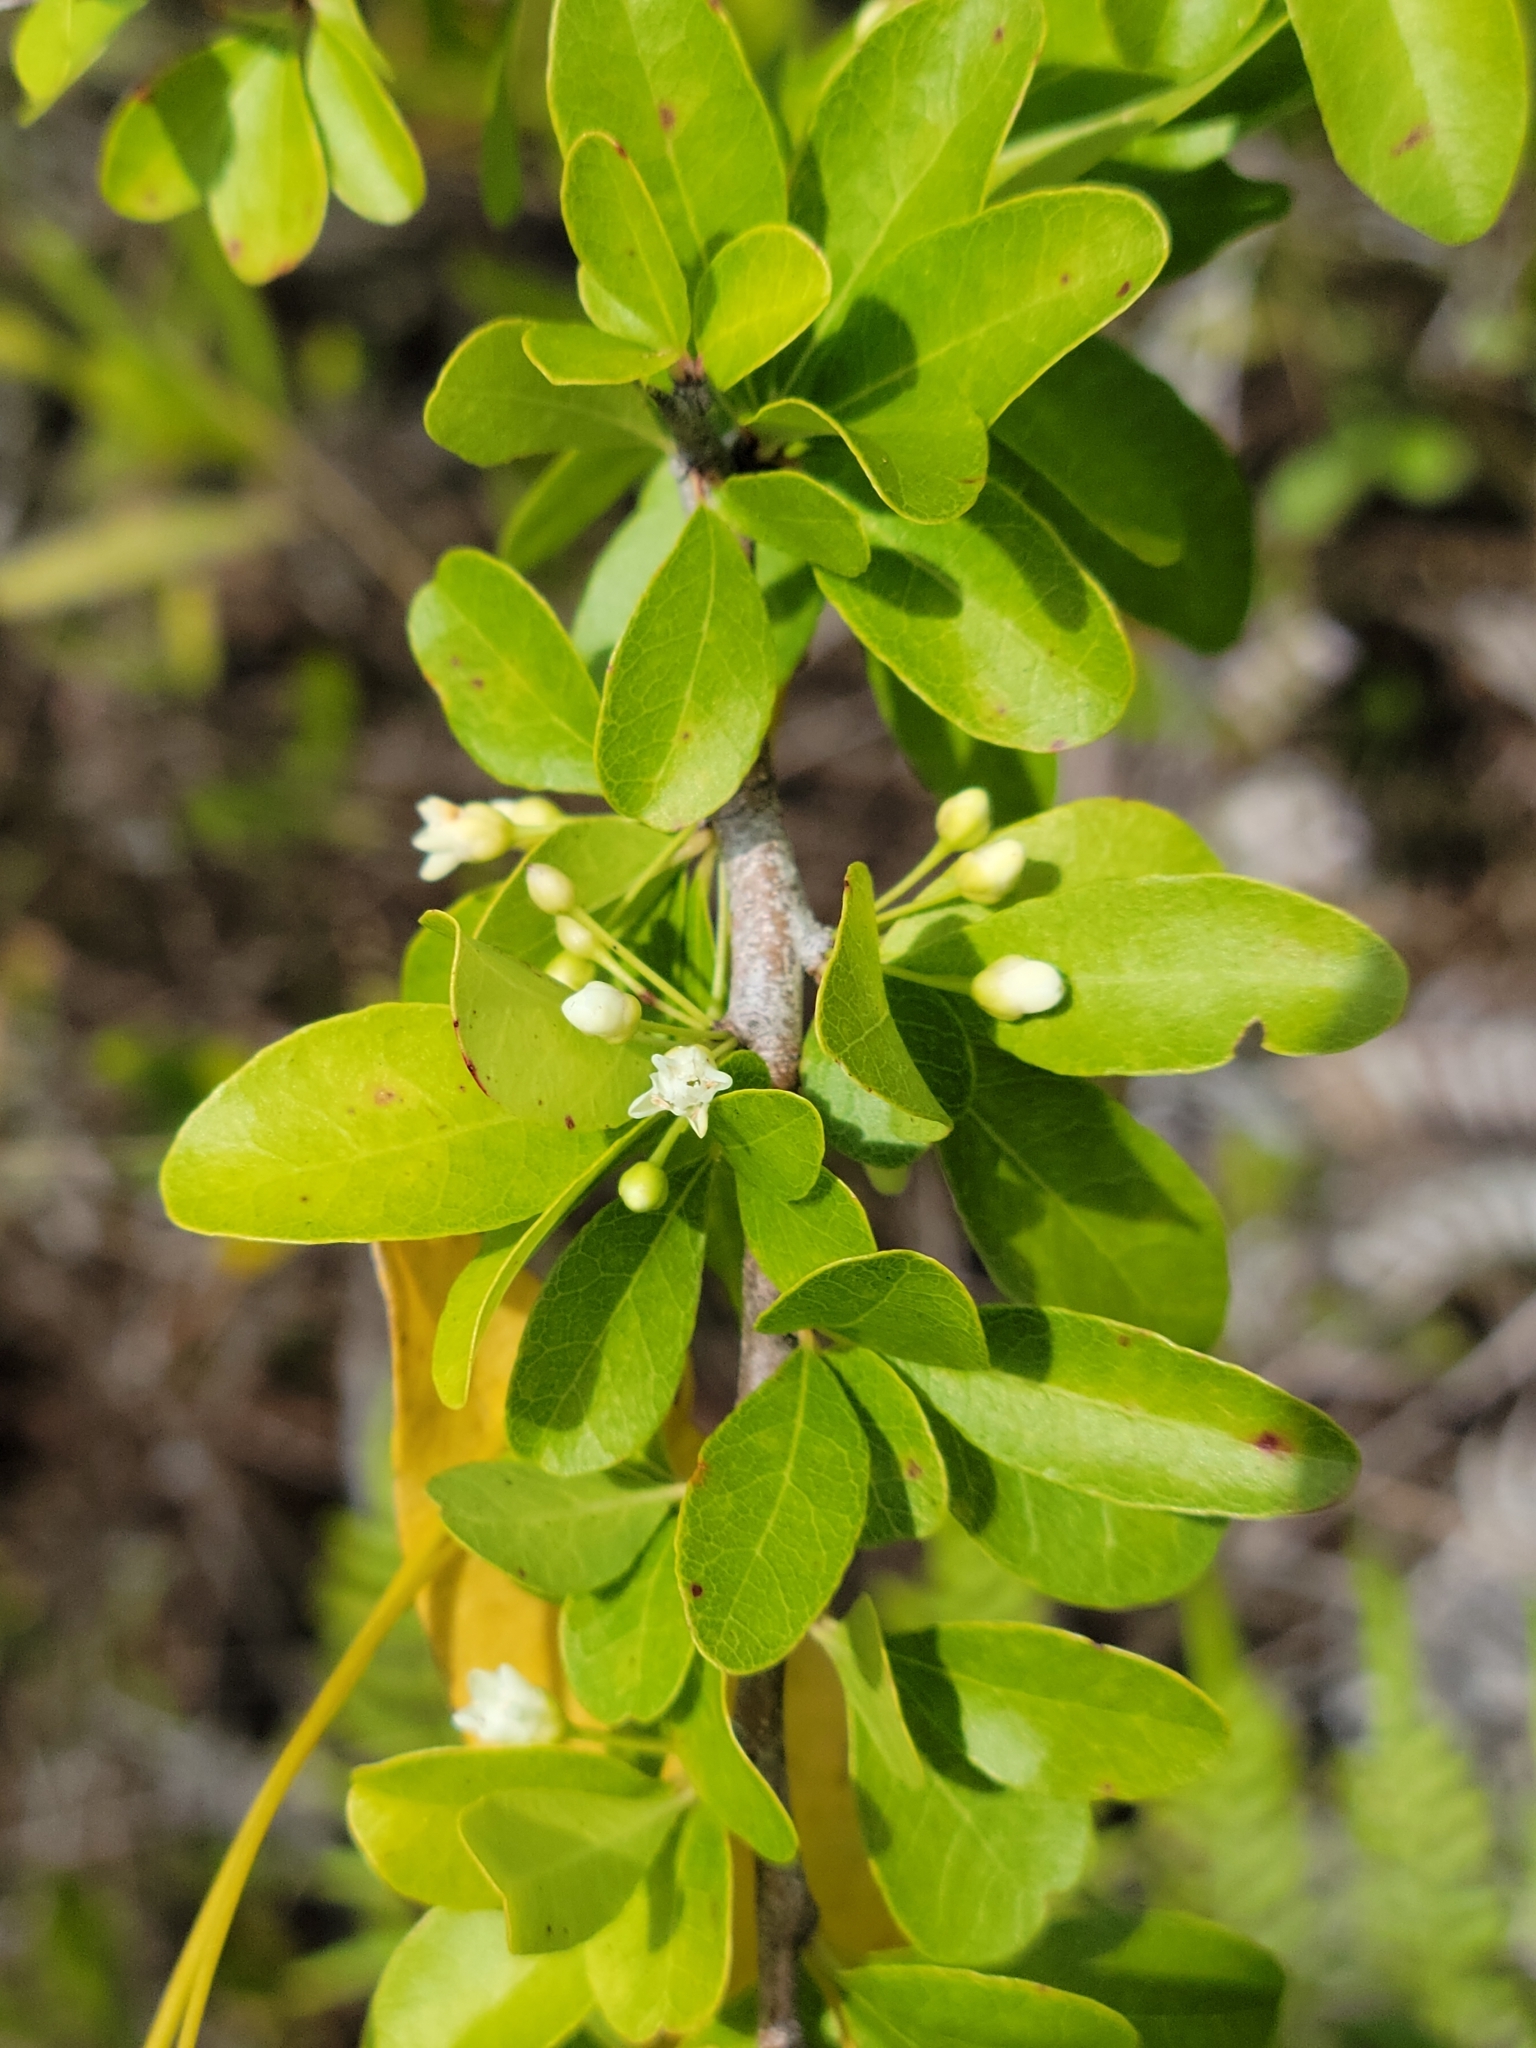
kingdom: Plantae
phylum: Tracheophyta
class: Magnoliopsida
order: Ericales
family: Sapotaceae
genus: Sideroxylon
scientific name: Sideroxylon reclinatum
